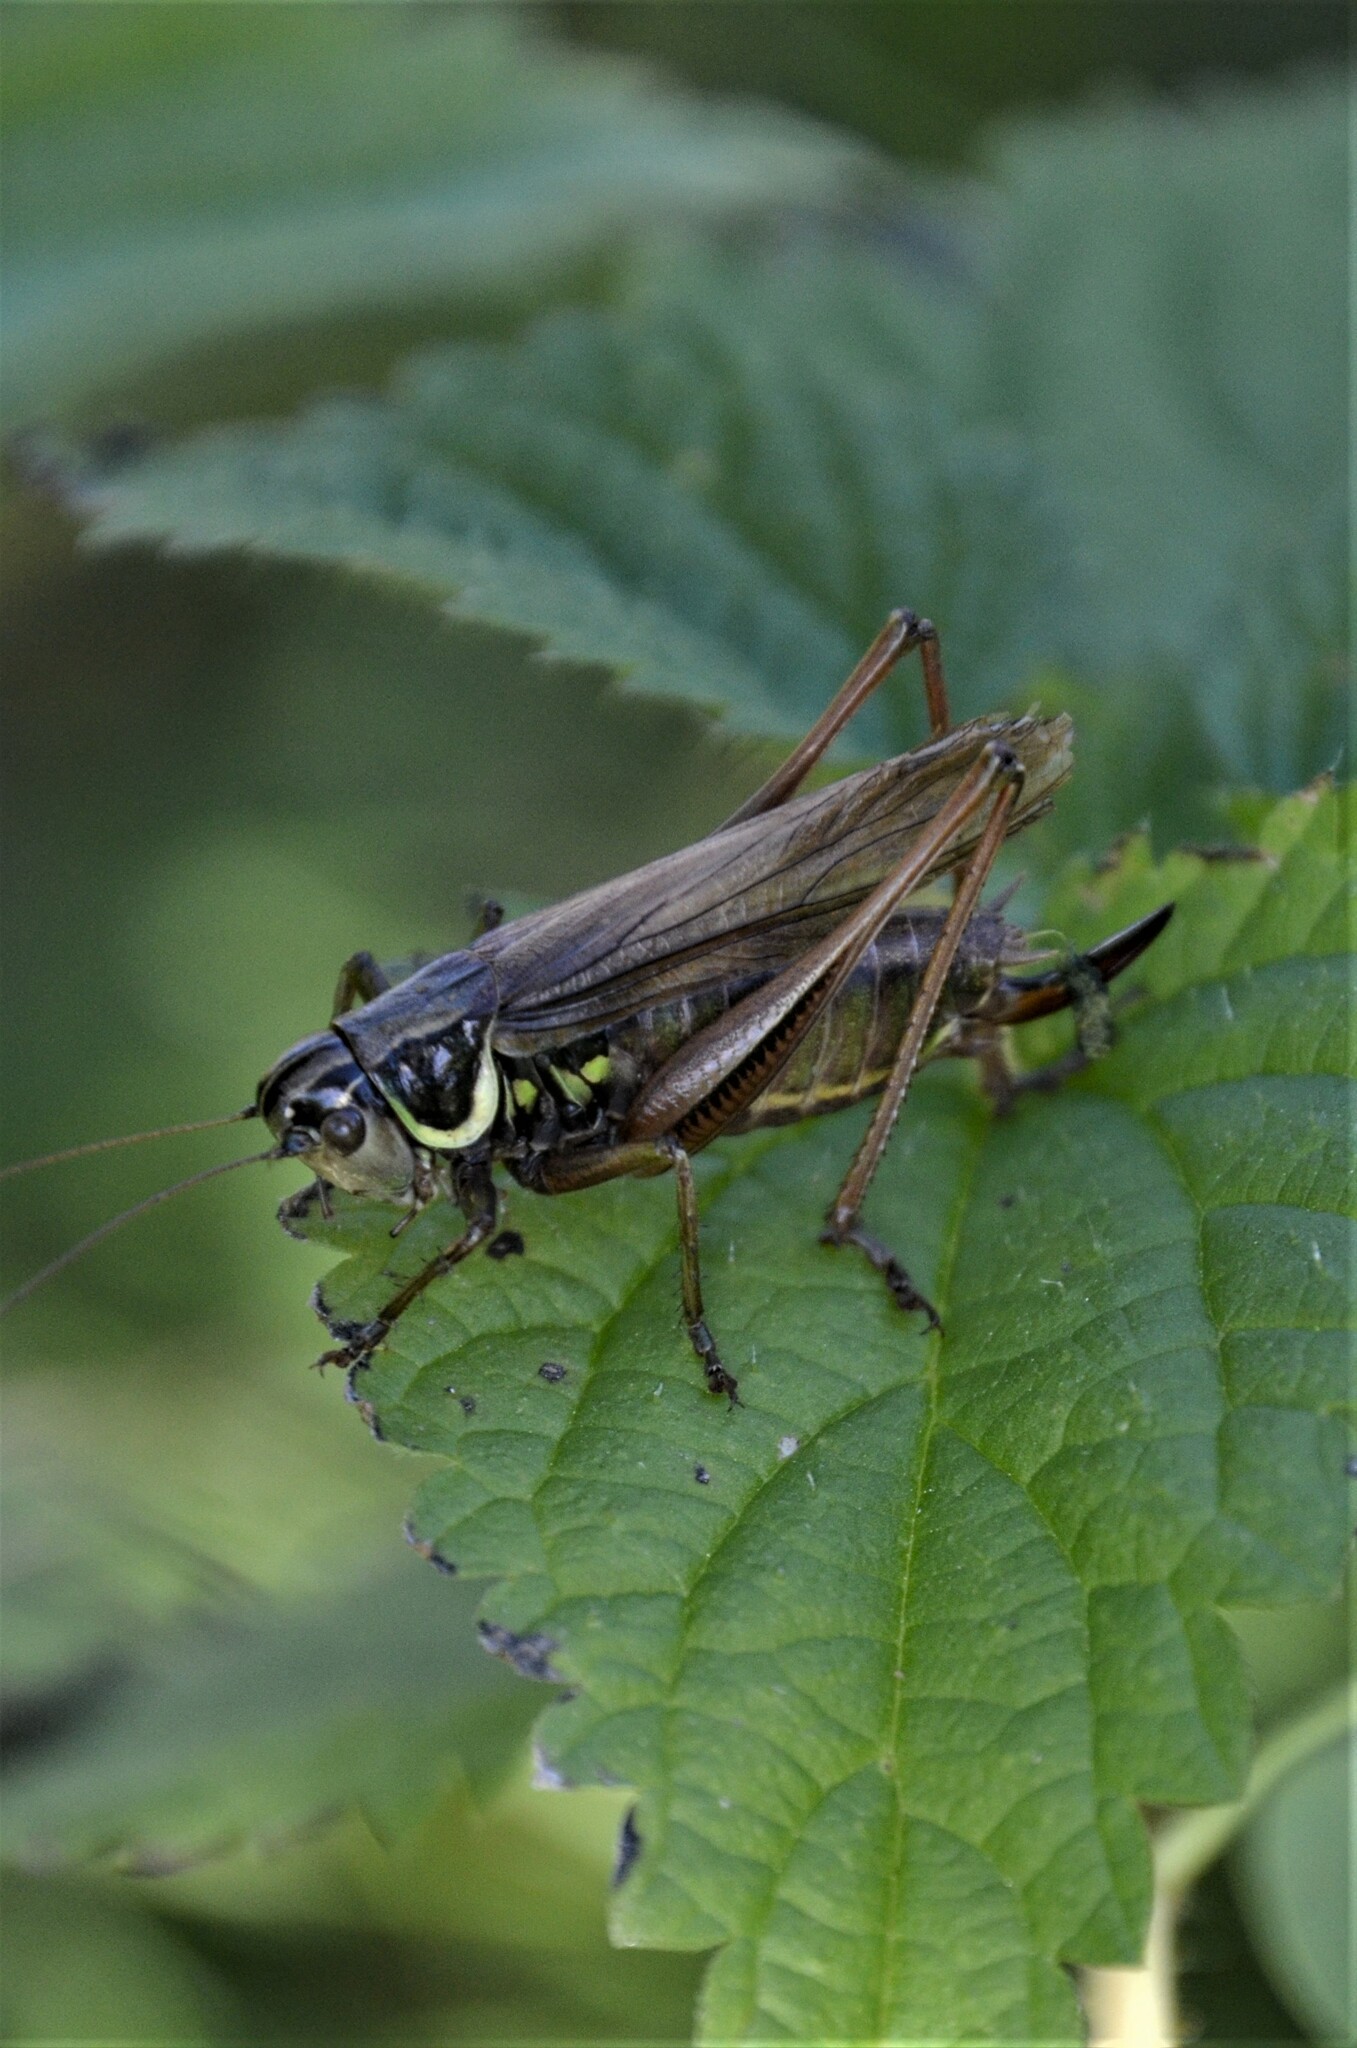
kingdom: Animalia
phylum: Arthropoda
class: Insecta
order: Orthoptera
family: Tettigoniidae
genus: Roeseliana
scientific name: Roeseliana roeselii
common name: Roesel's bush cricket
